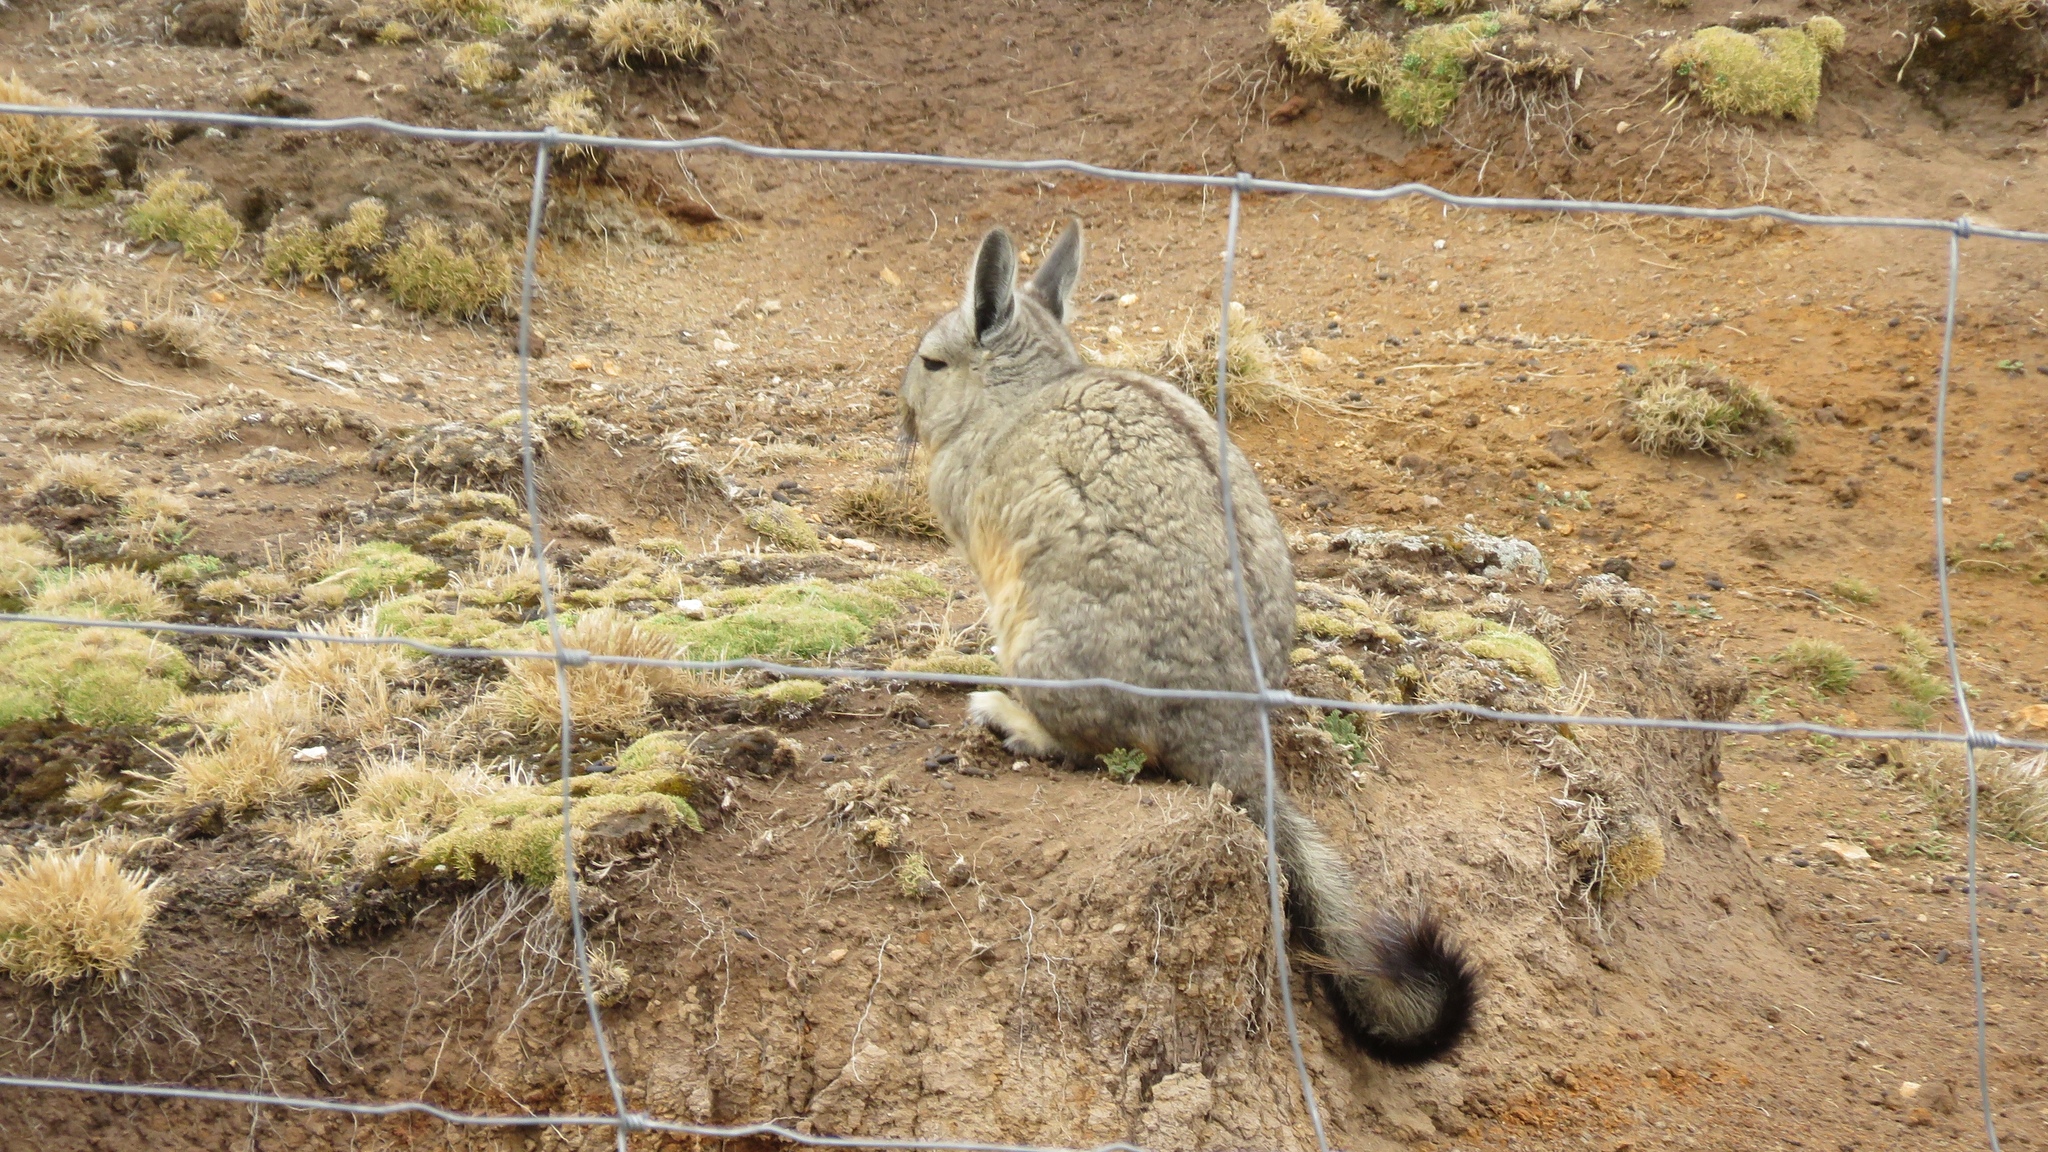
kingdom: Animalia
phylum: Chordata
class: Mammalia
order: Rodentia
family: Chinchillidae
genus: Lagidium
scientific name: Lagidium viscacia
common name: Southern viscacha
